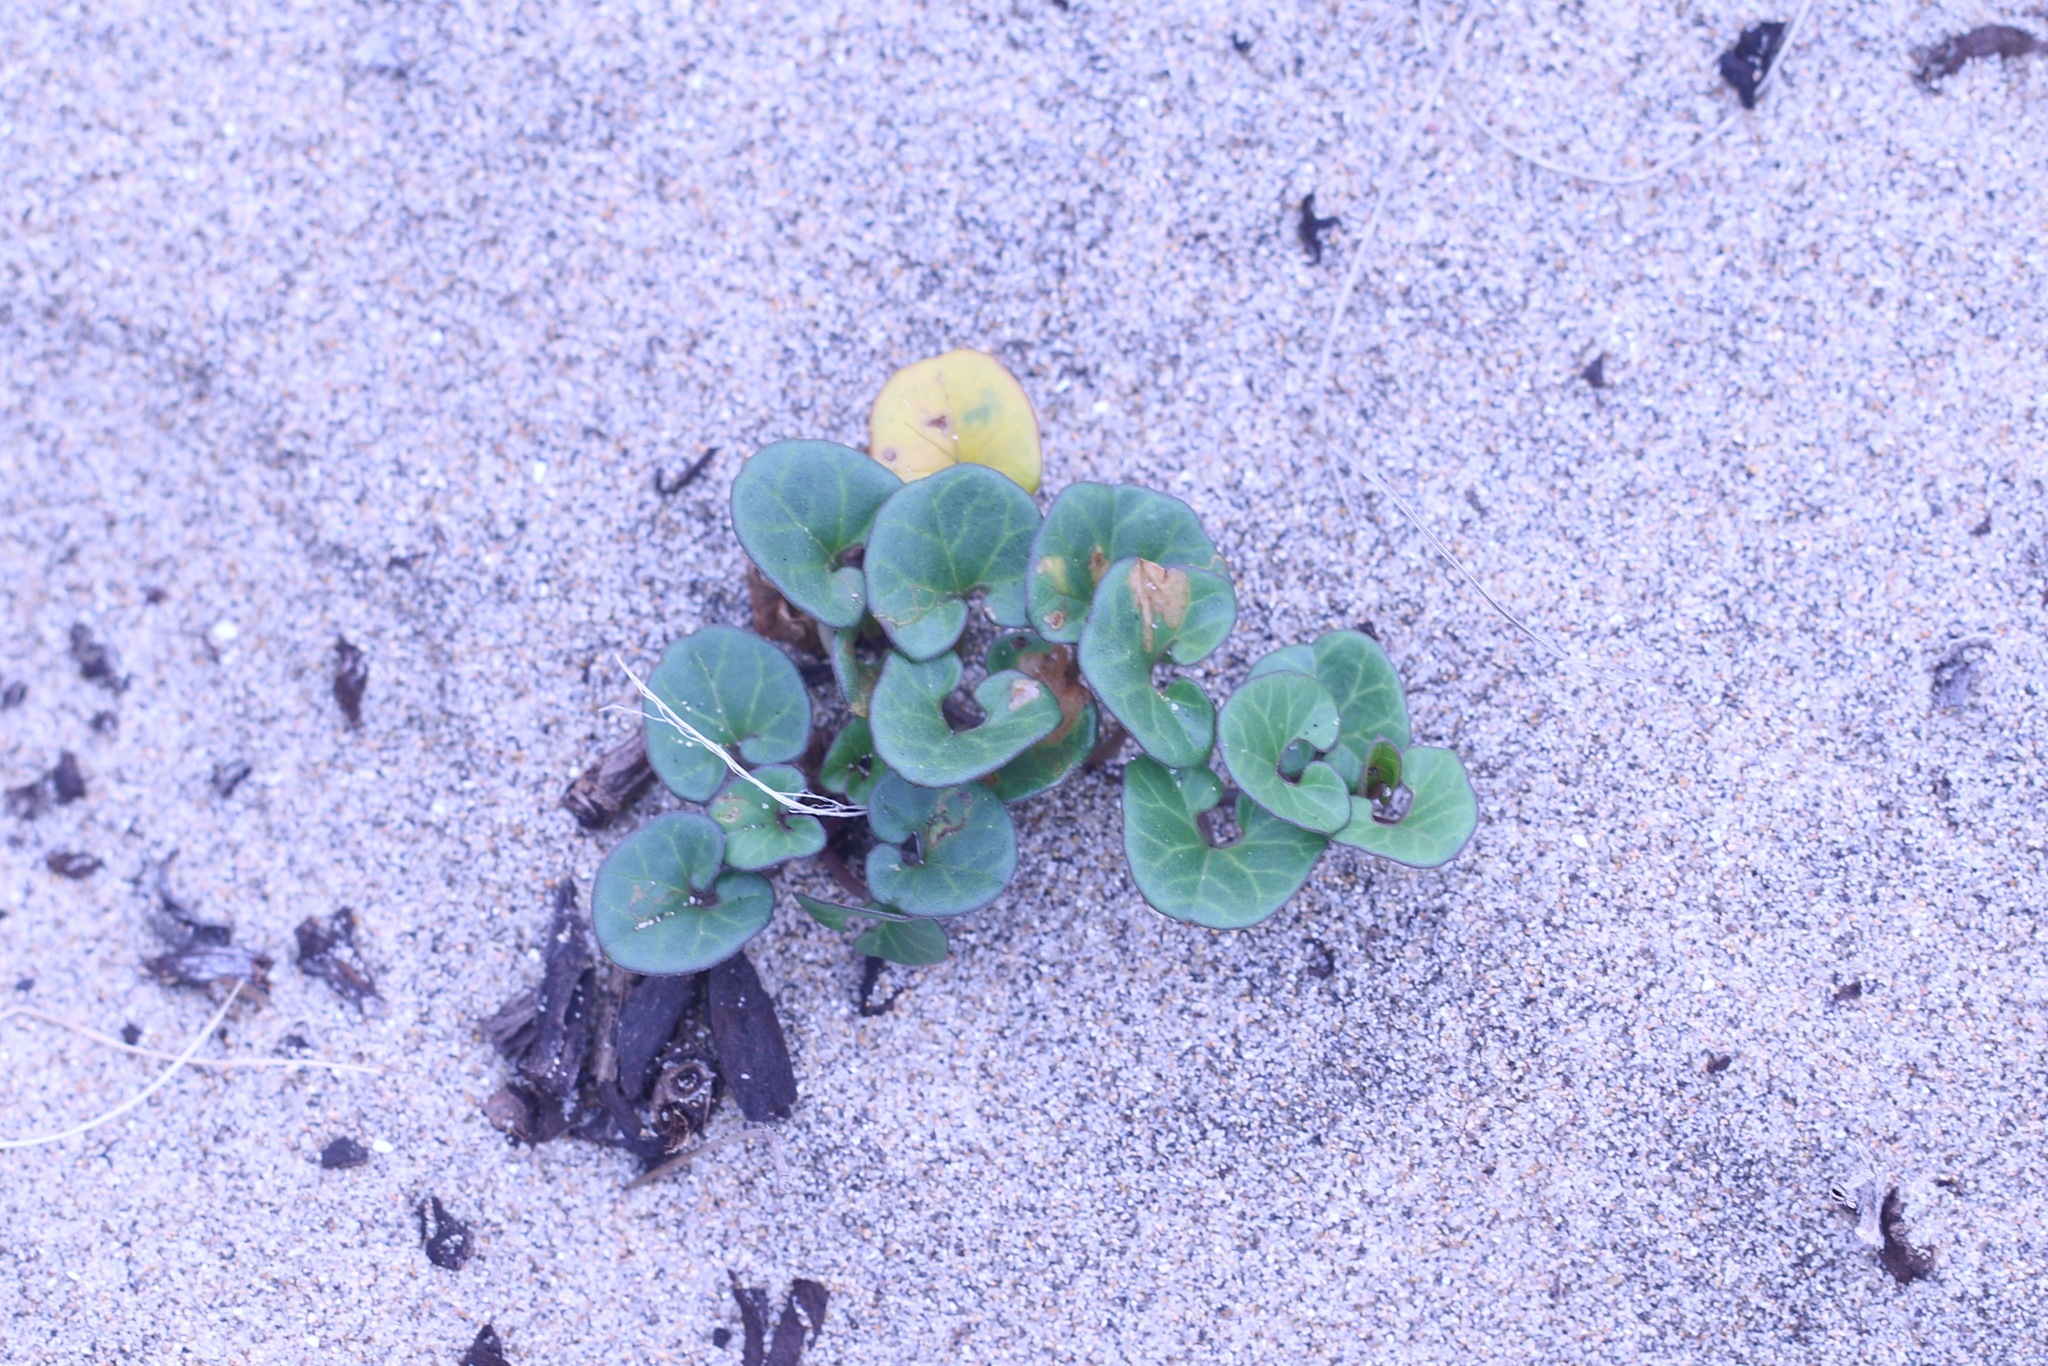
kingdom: Plantae
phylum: Tracheophyta
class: Magnoliopsida
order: Solanales
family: Convolvulaceae
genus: Calystegia
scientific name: Calystegia soldanella
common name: Sea bindweed
